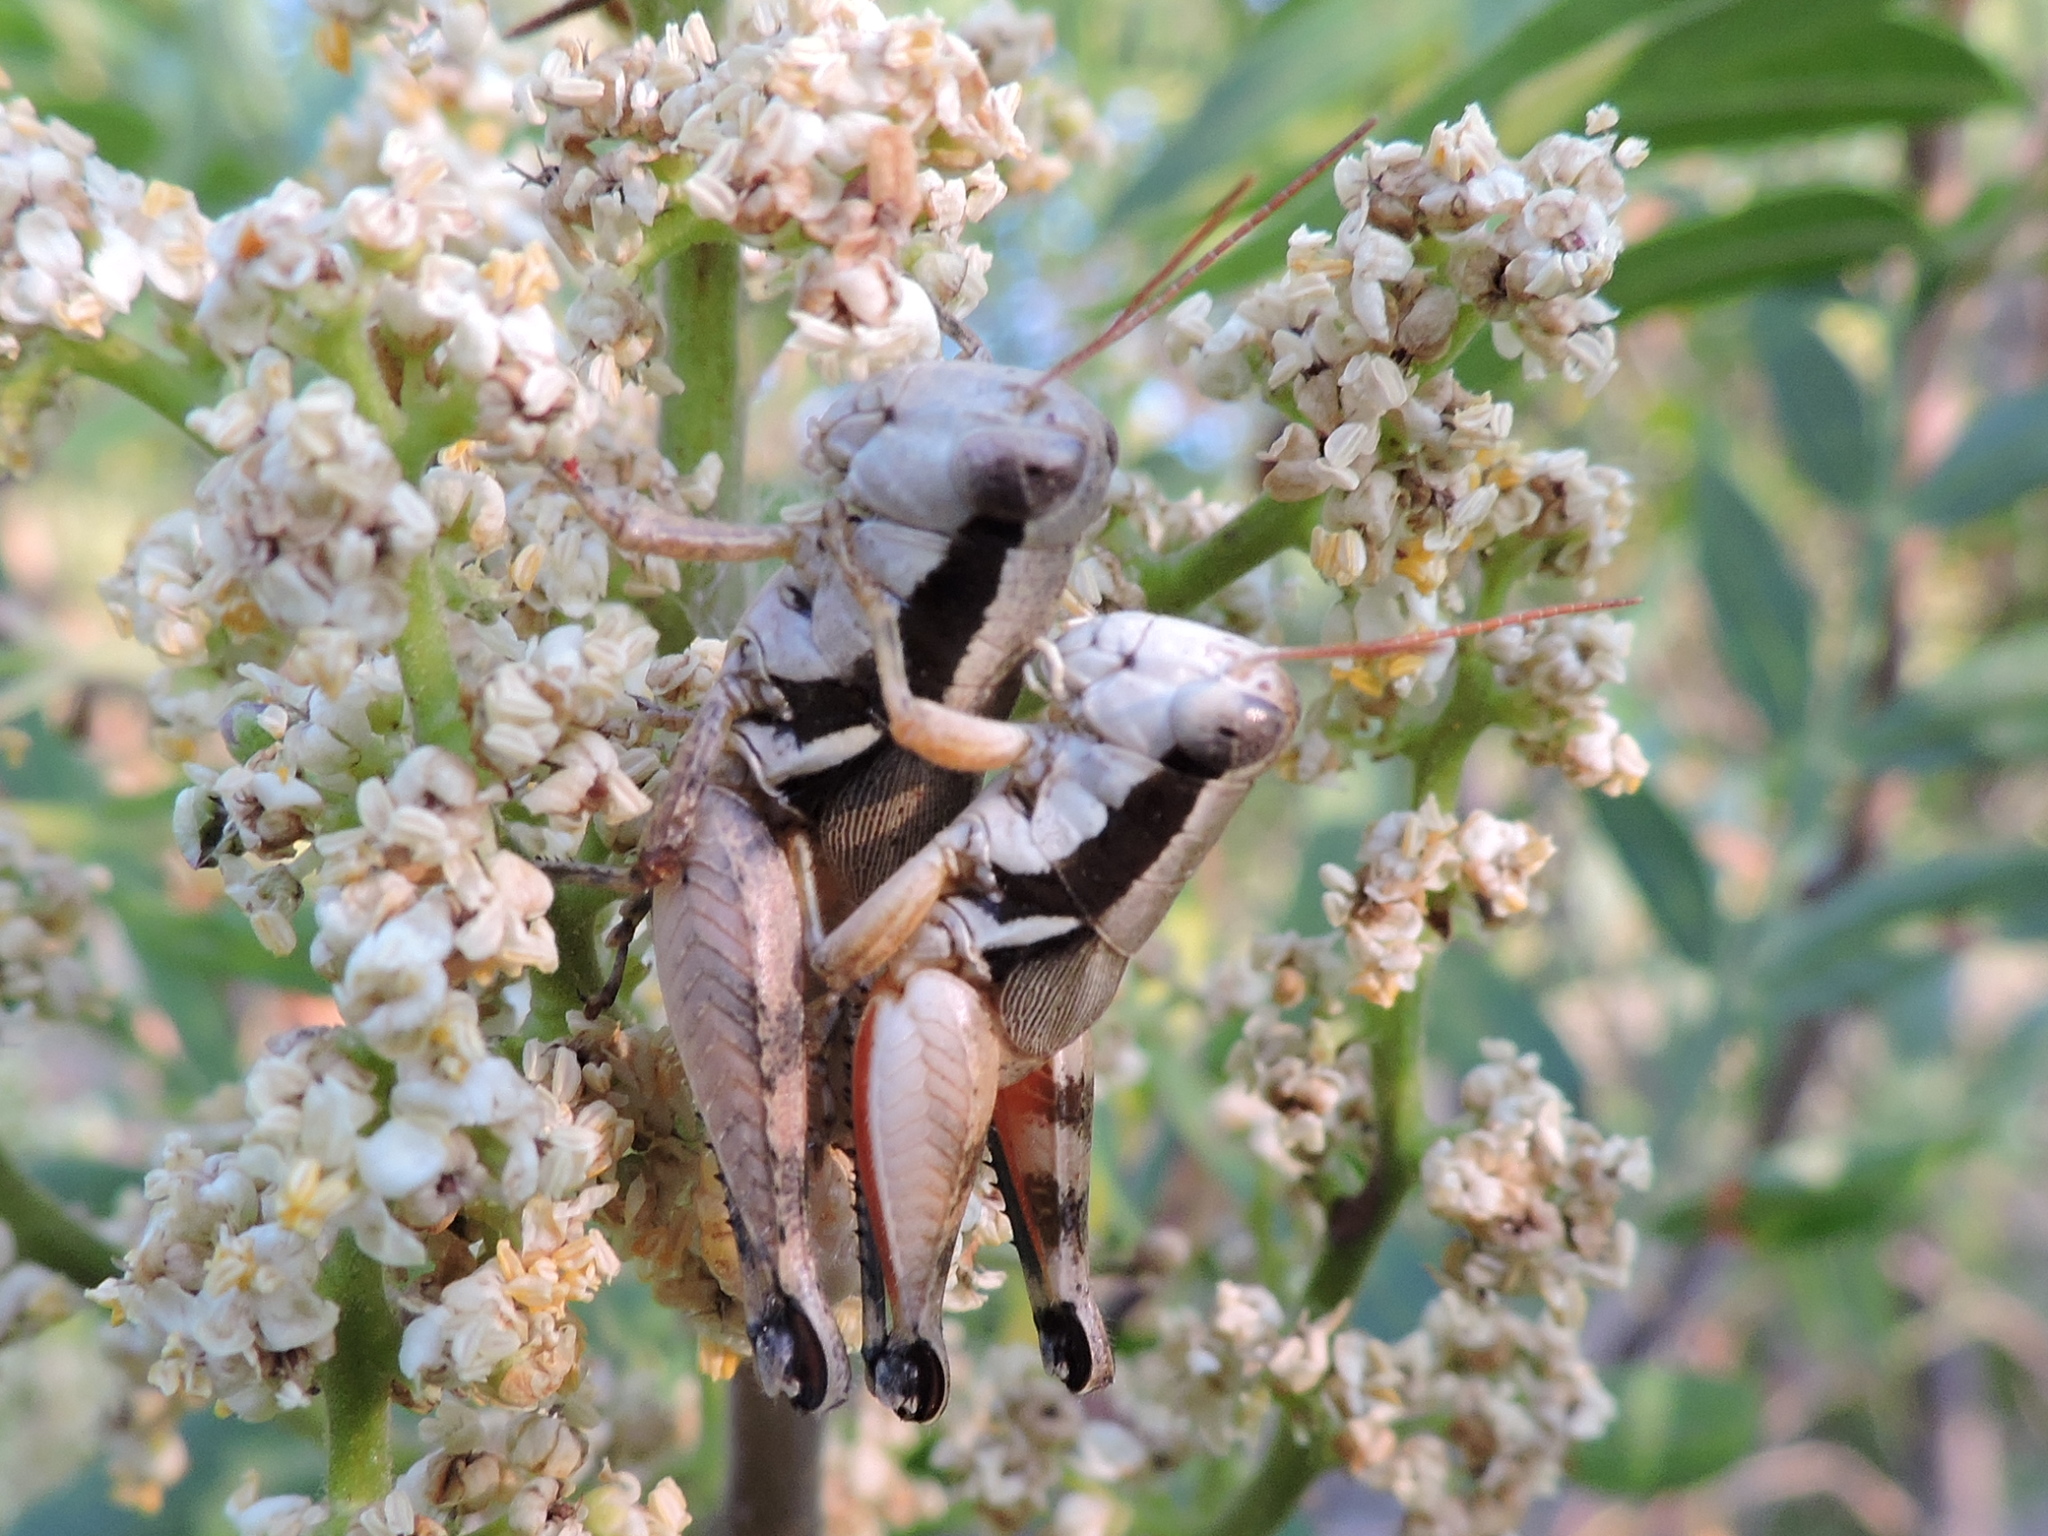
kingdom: Animalia
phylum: Arthropoda
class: Insecta
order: Orthoptera
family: Acrididae
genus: Melanoplus
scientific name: Melanoplus flabellatus
